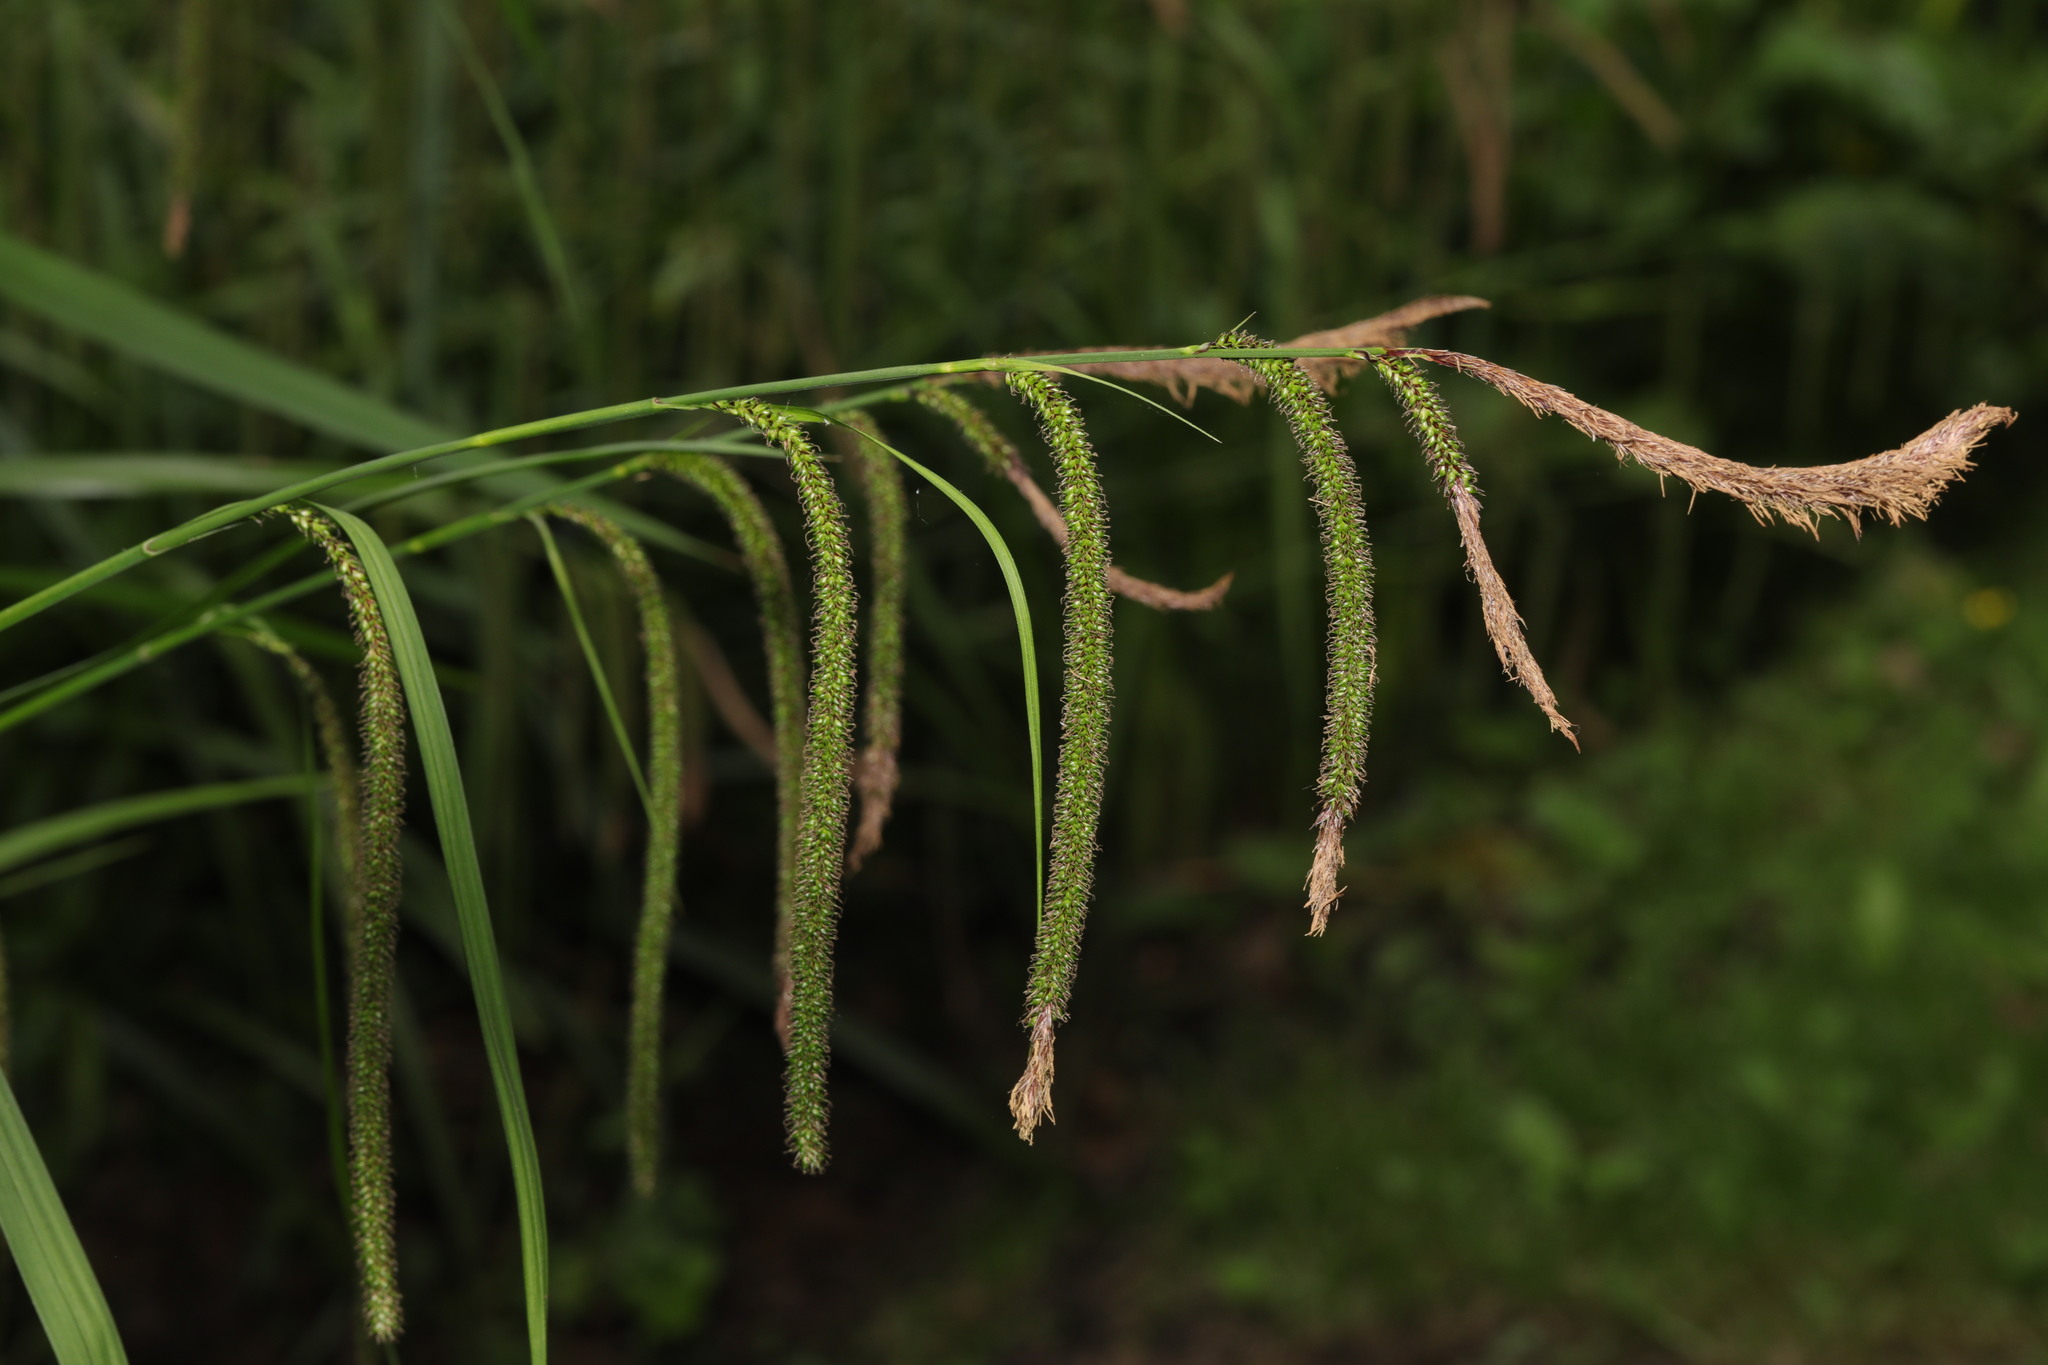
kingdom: Plantae
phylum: Tracheophyta
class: Liliopsida
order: Poales
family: Cyperaceae
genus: Carex
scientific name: Carex pendula
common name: Pendulous sedge
